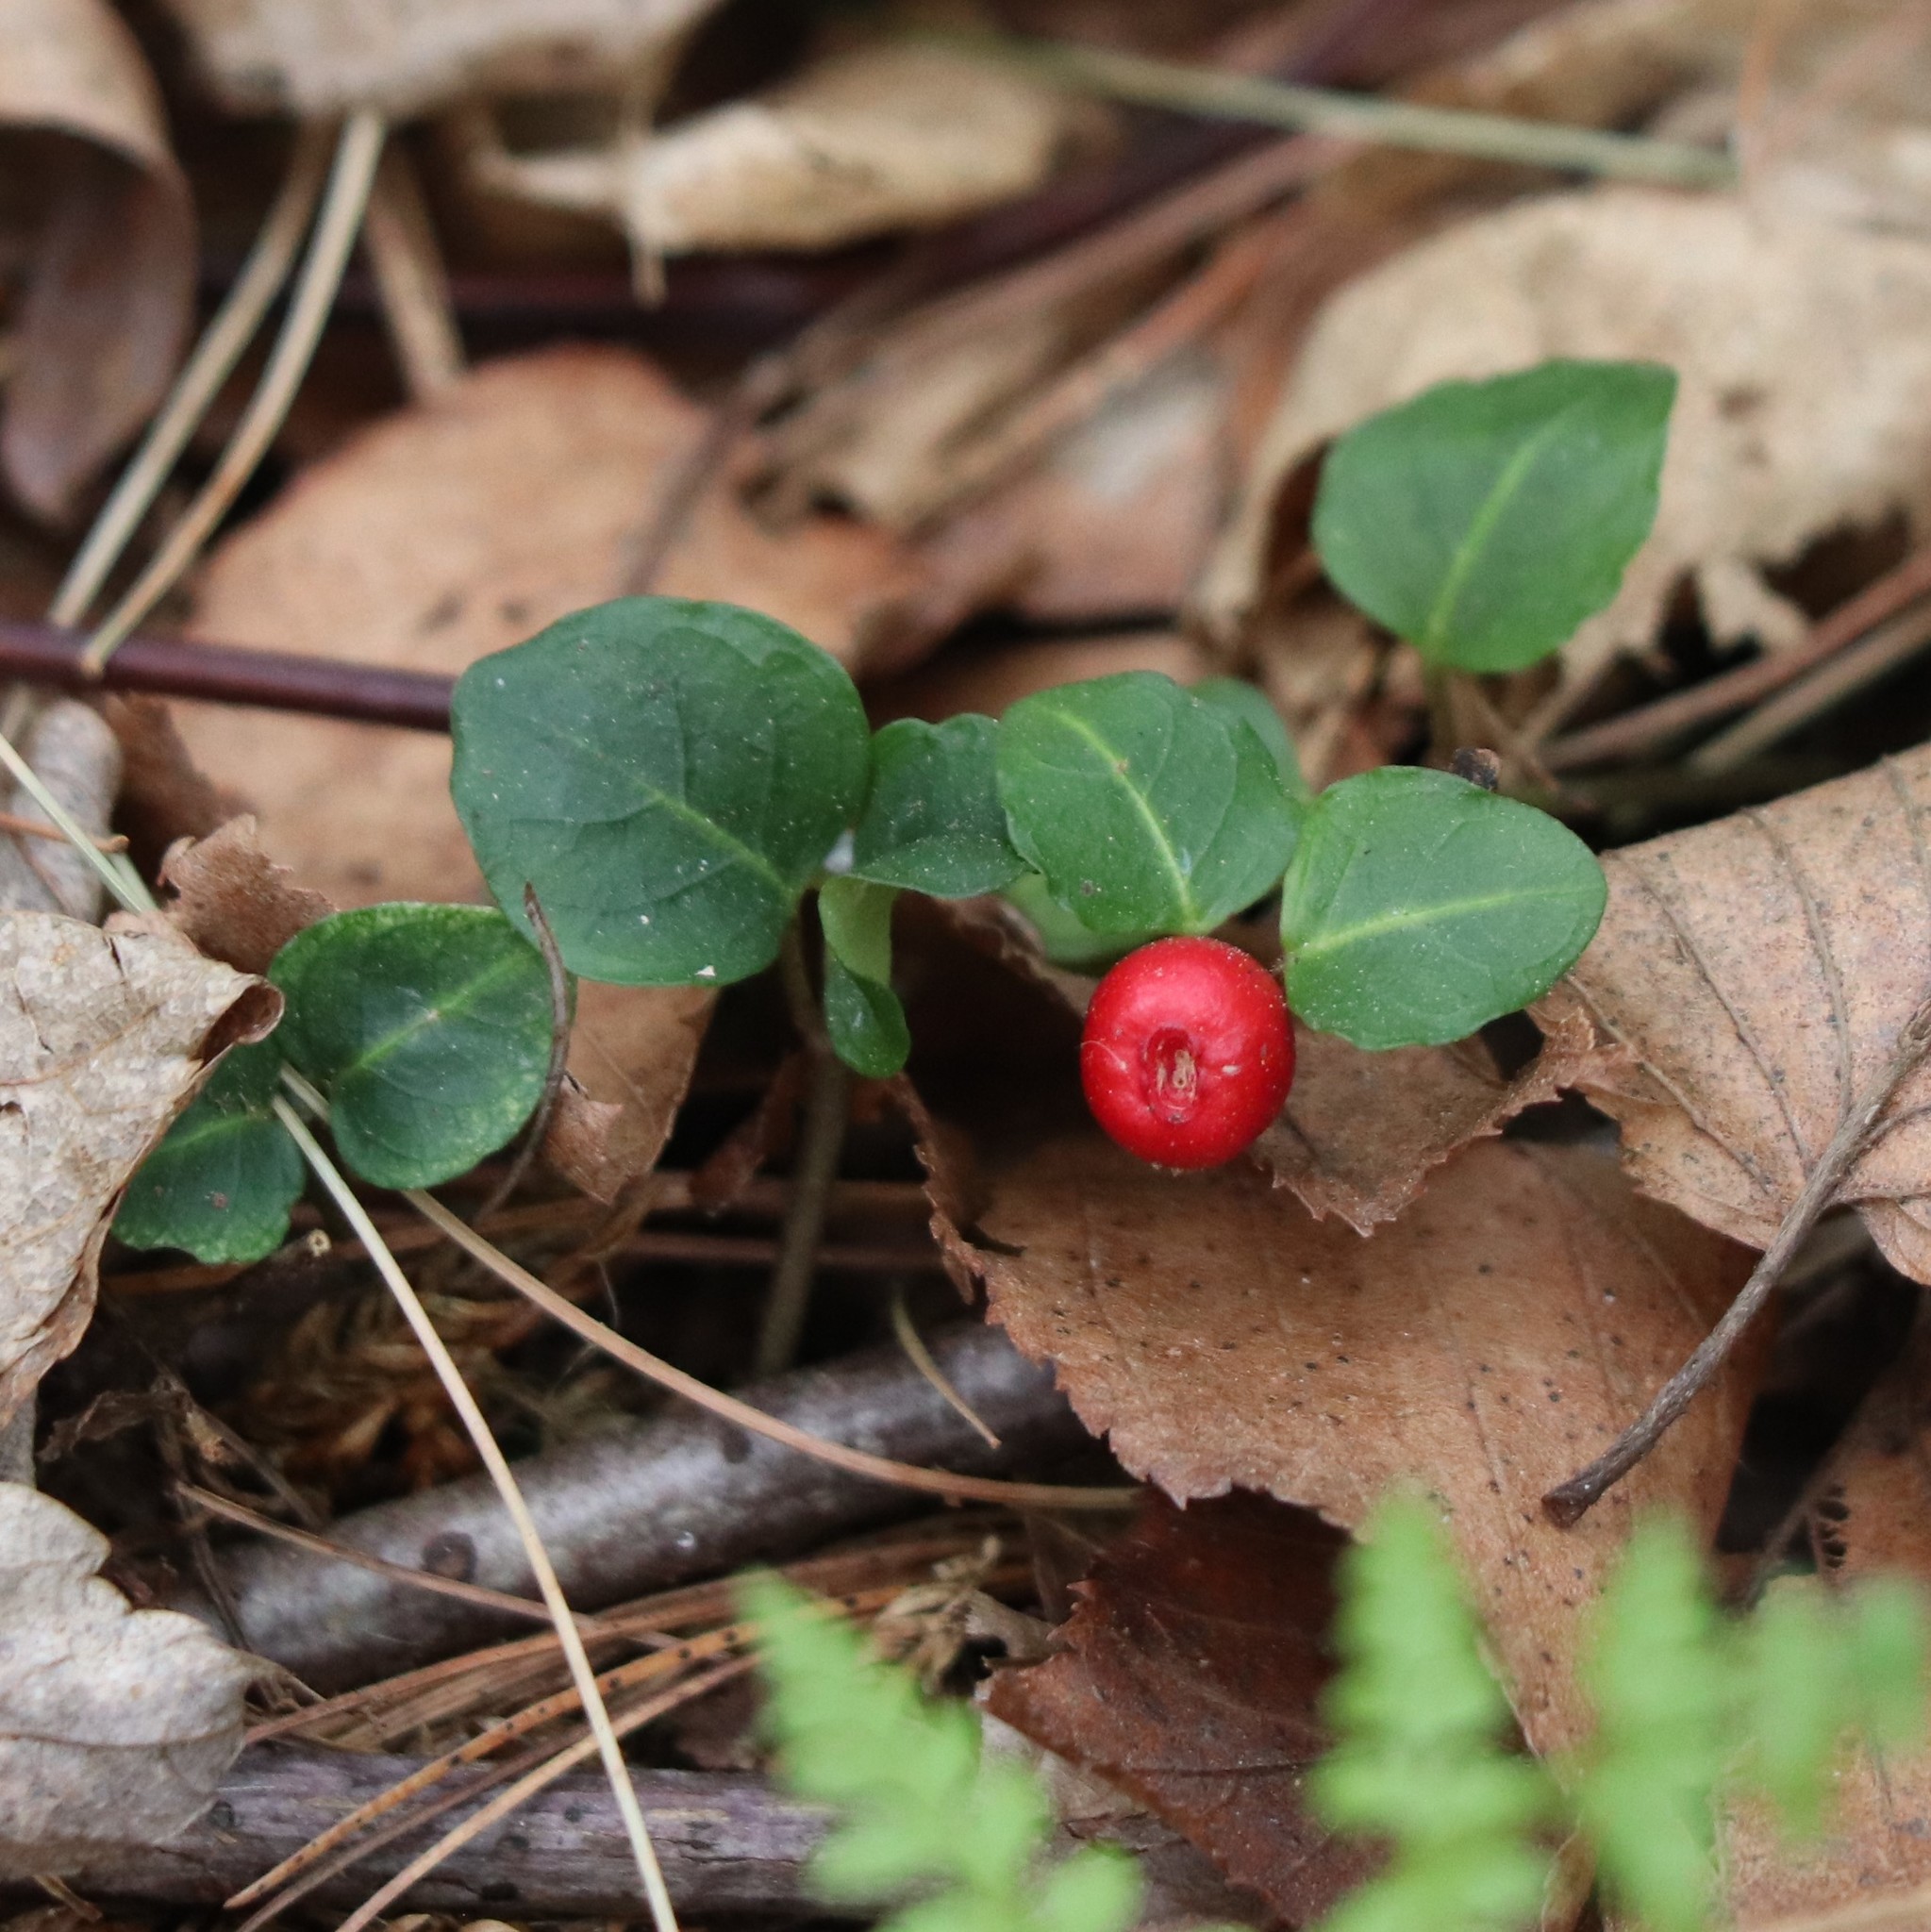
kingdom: Plantae
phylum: Tracheophyta
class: Magnoliopsida
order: Gentianales
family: Rubiaceae
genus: Mitchella
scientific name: Mitchella repens
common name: Partridge-berry
